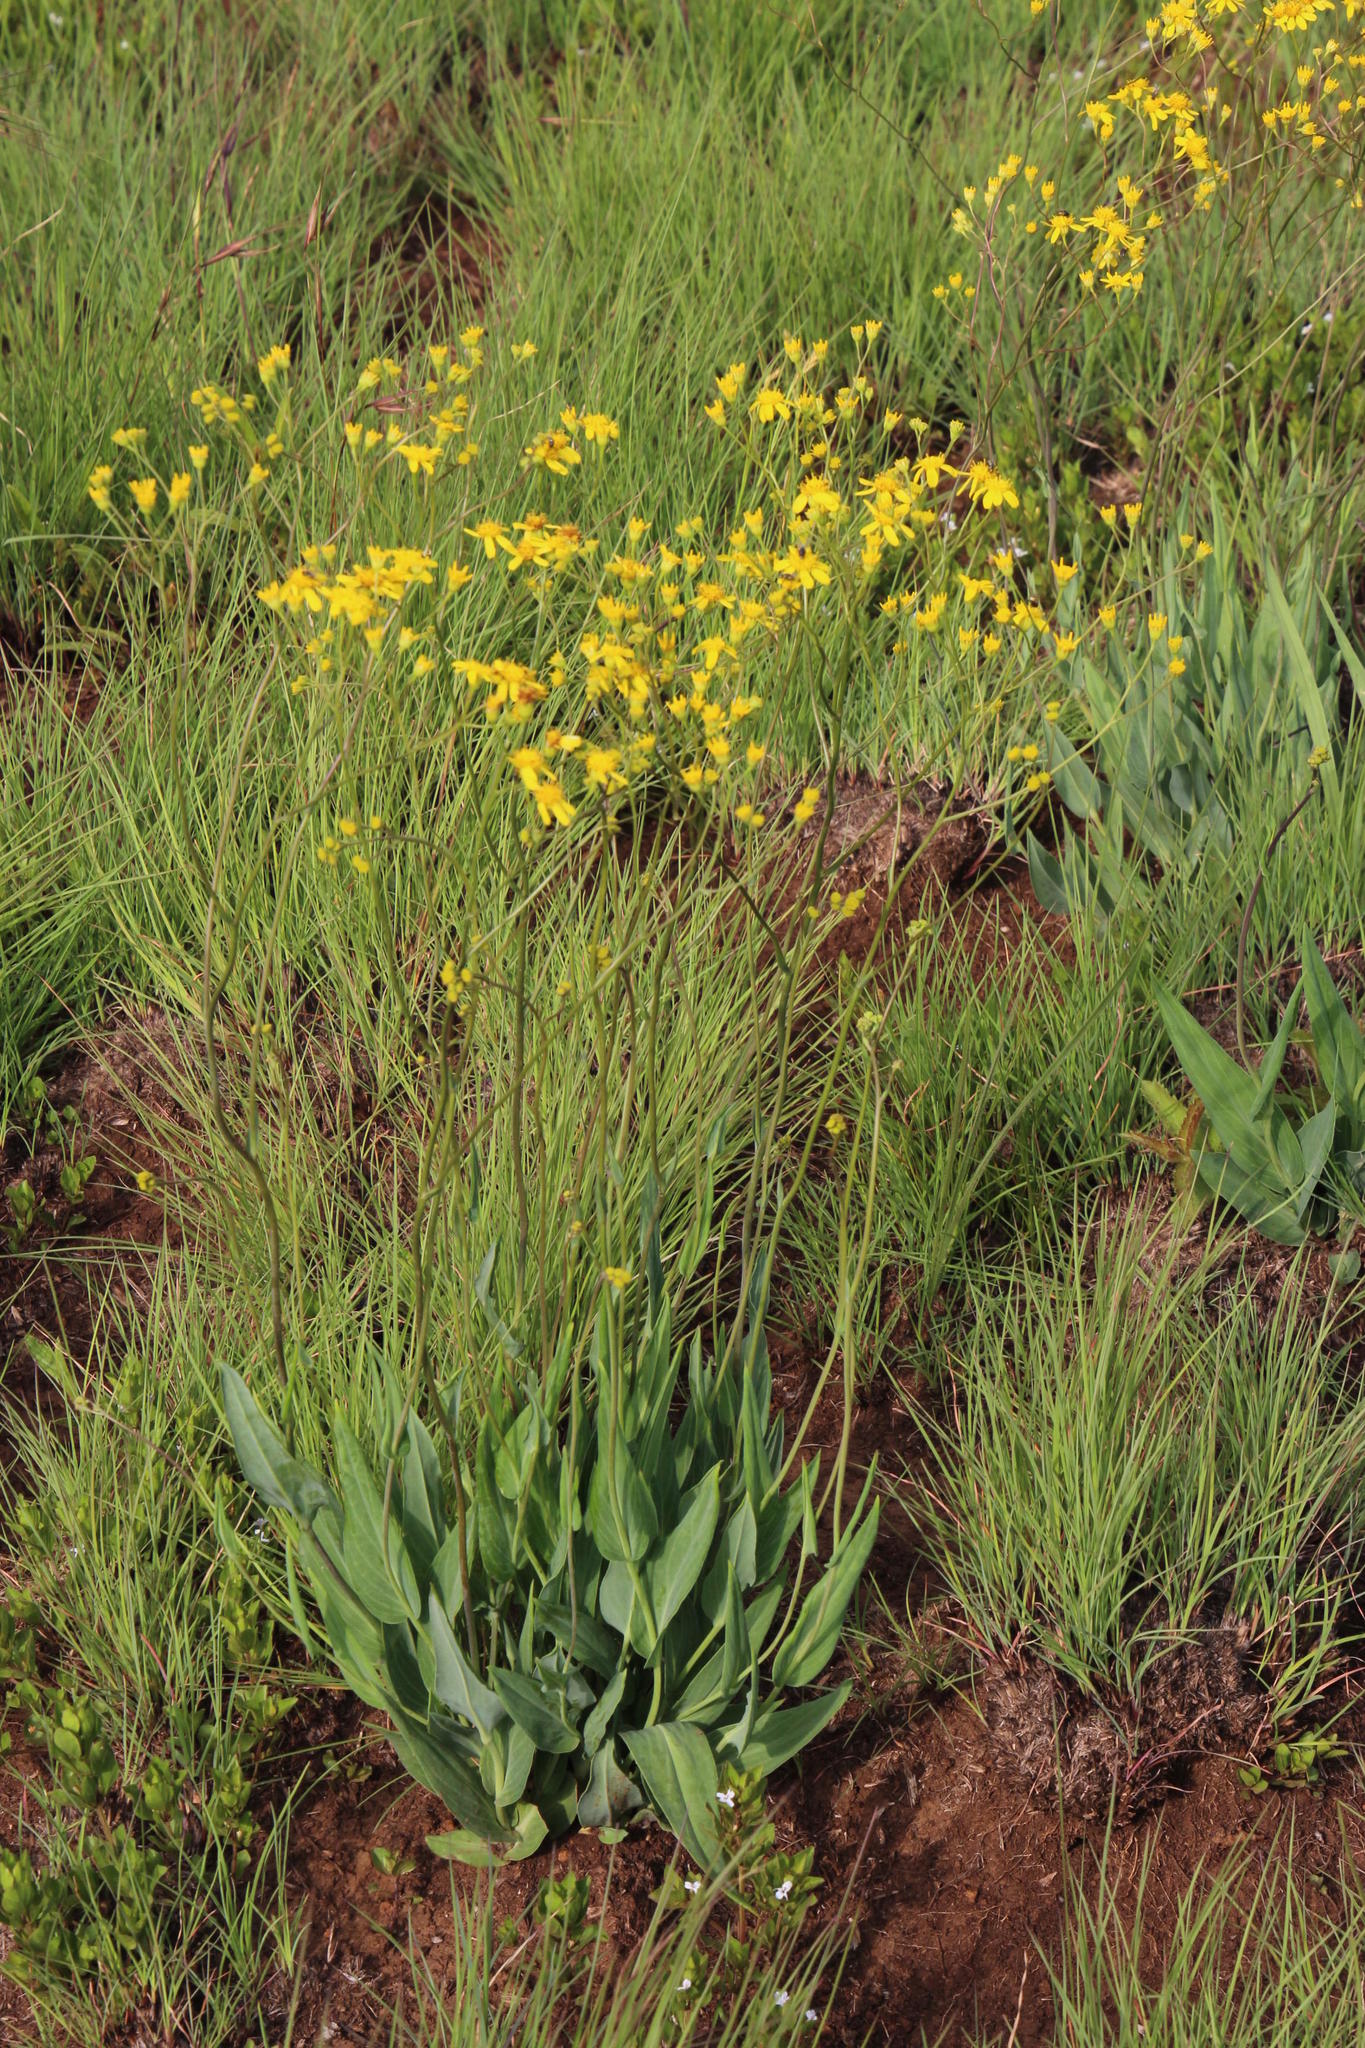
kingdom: Plantae
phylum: Tracheophyta
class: Magnoliopsida
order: Asterales
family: Asteraceae
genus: Senecio
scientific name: Senecio glaberrimus
